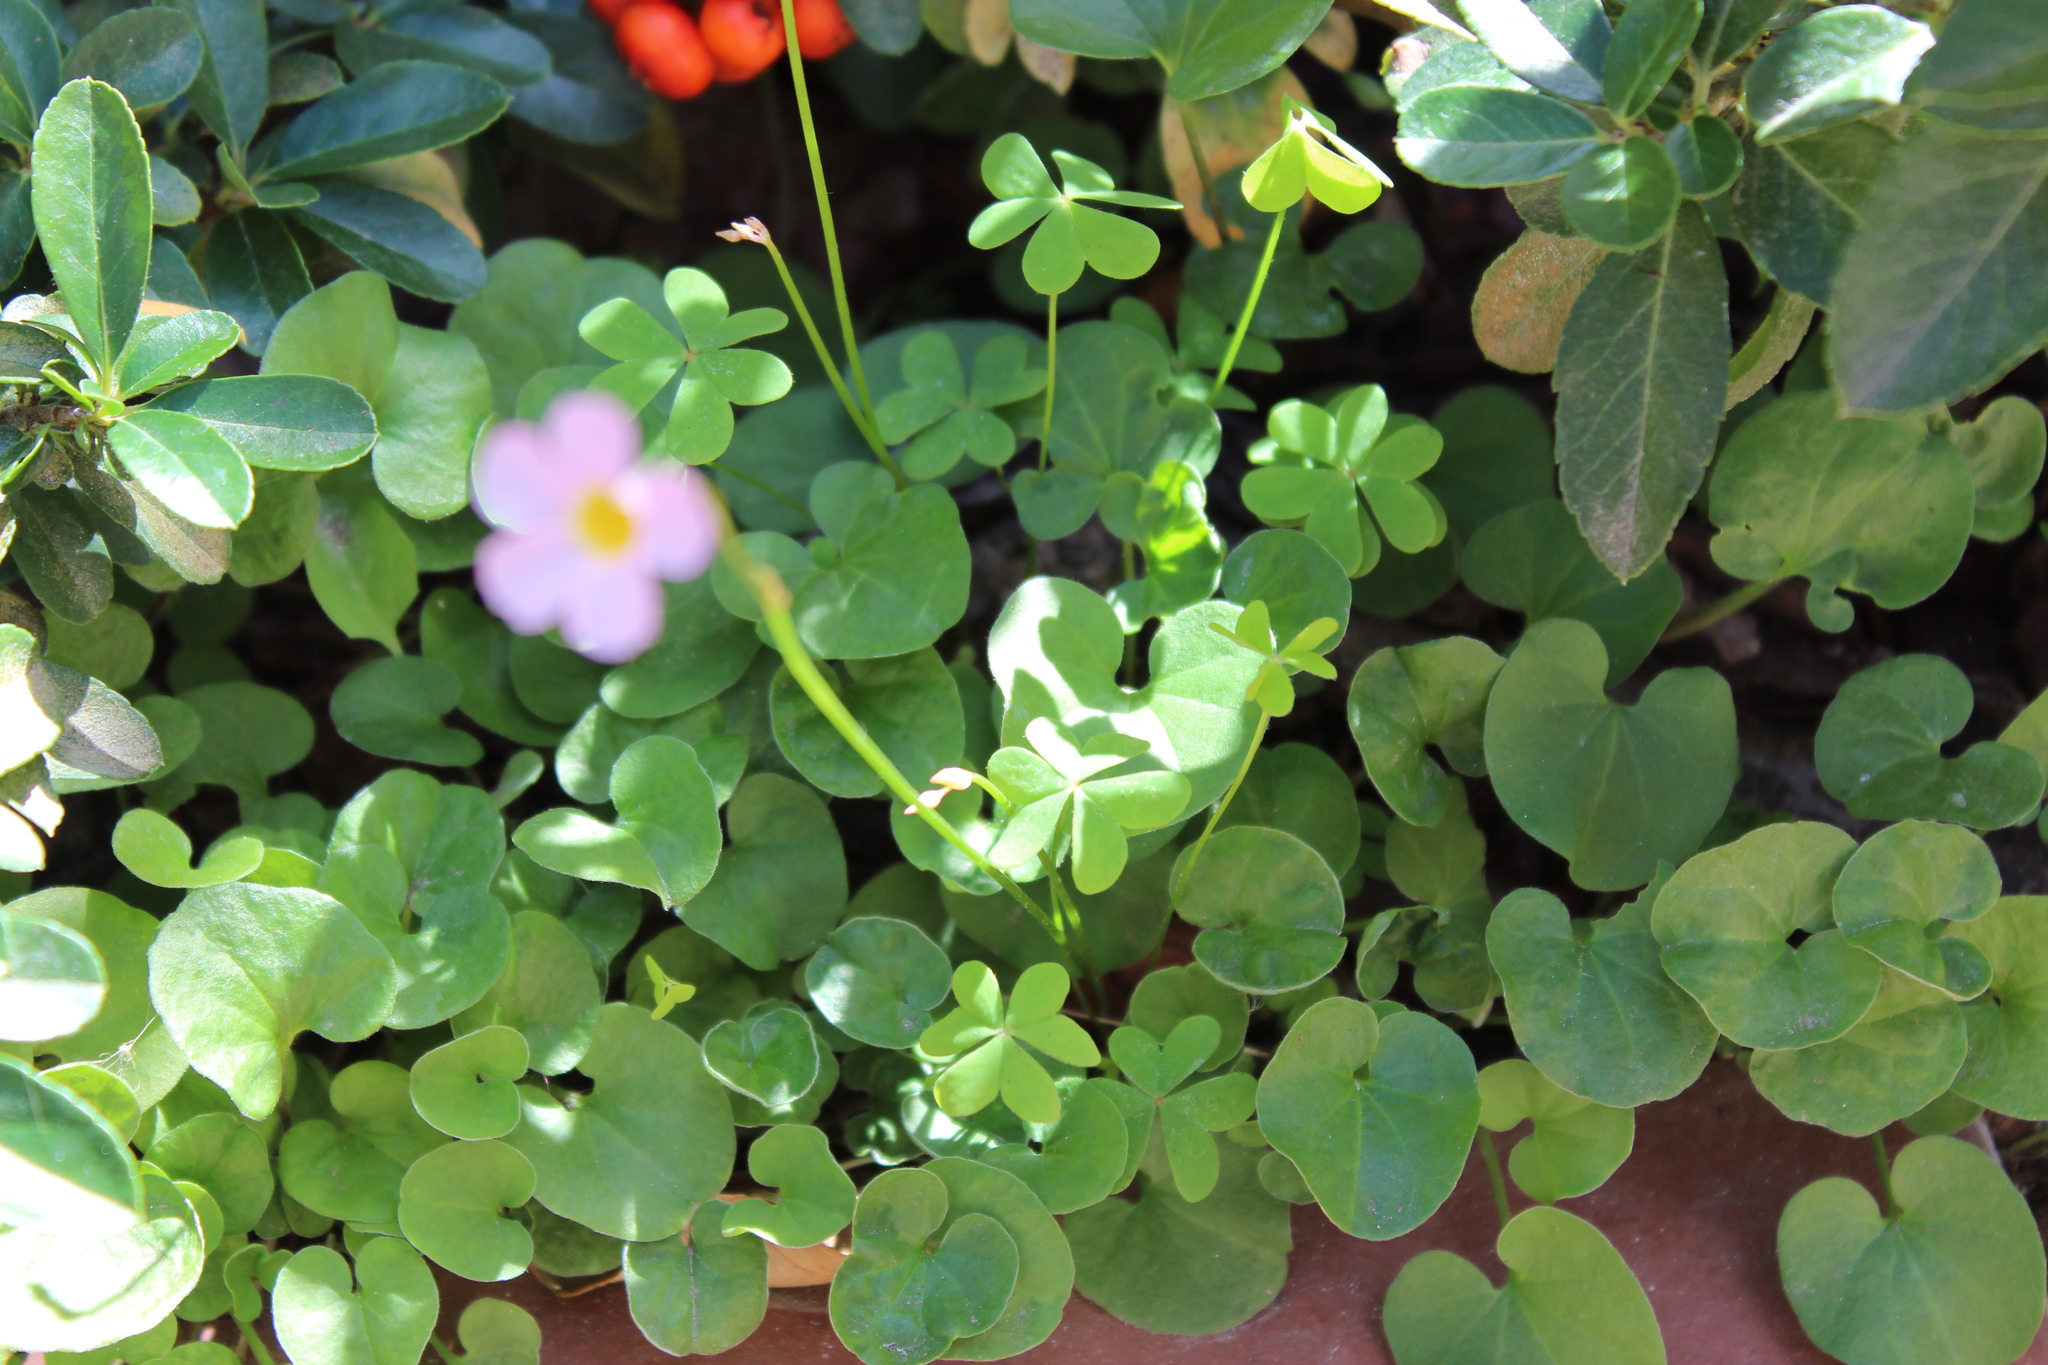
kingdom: Plantae
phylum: Tracheophyta
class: Magnoliopsida
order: Oxalidales
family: Oxalidaceae
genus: Oxalis
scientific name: Oxalis caprina
